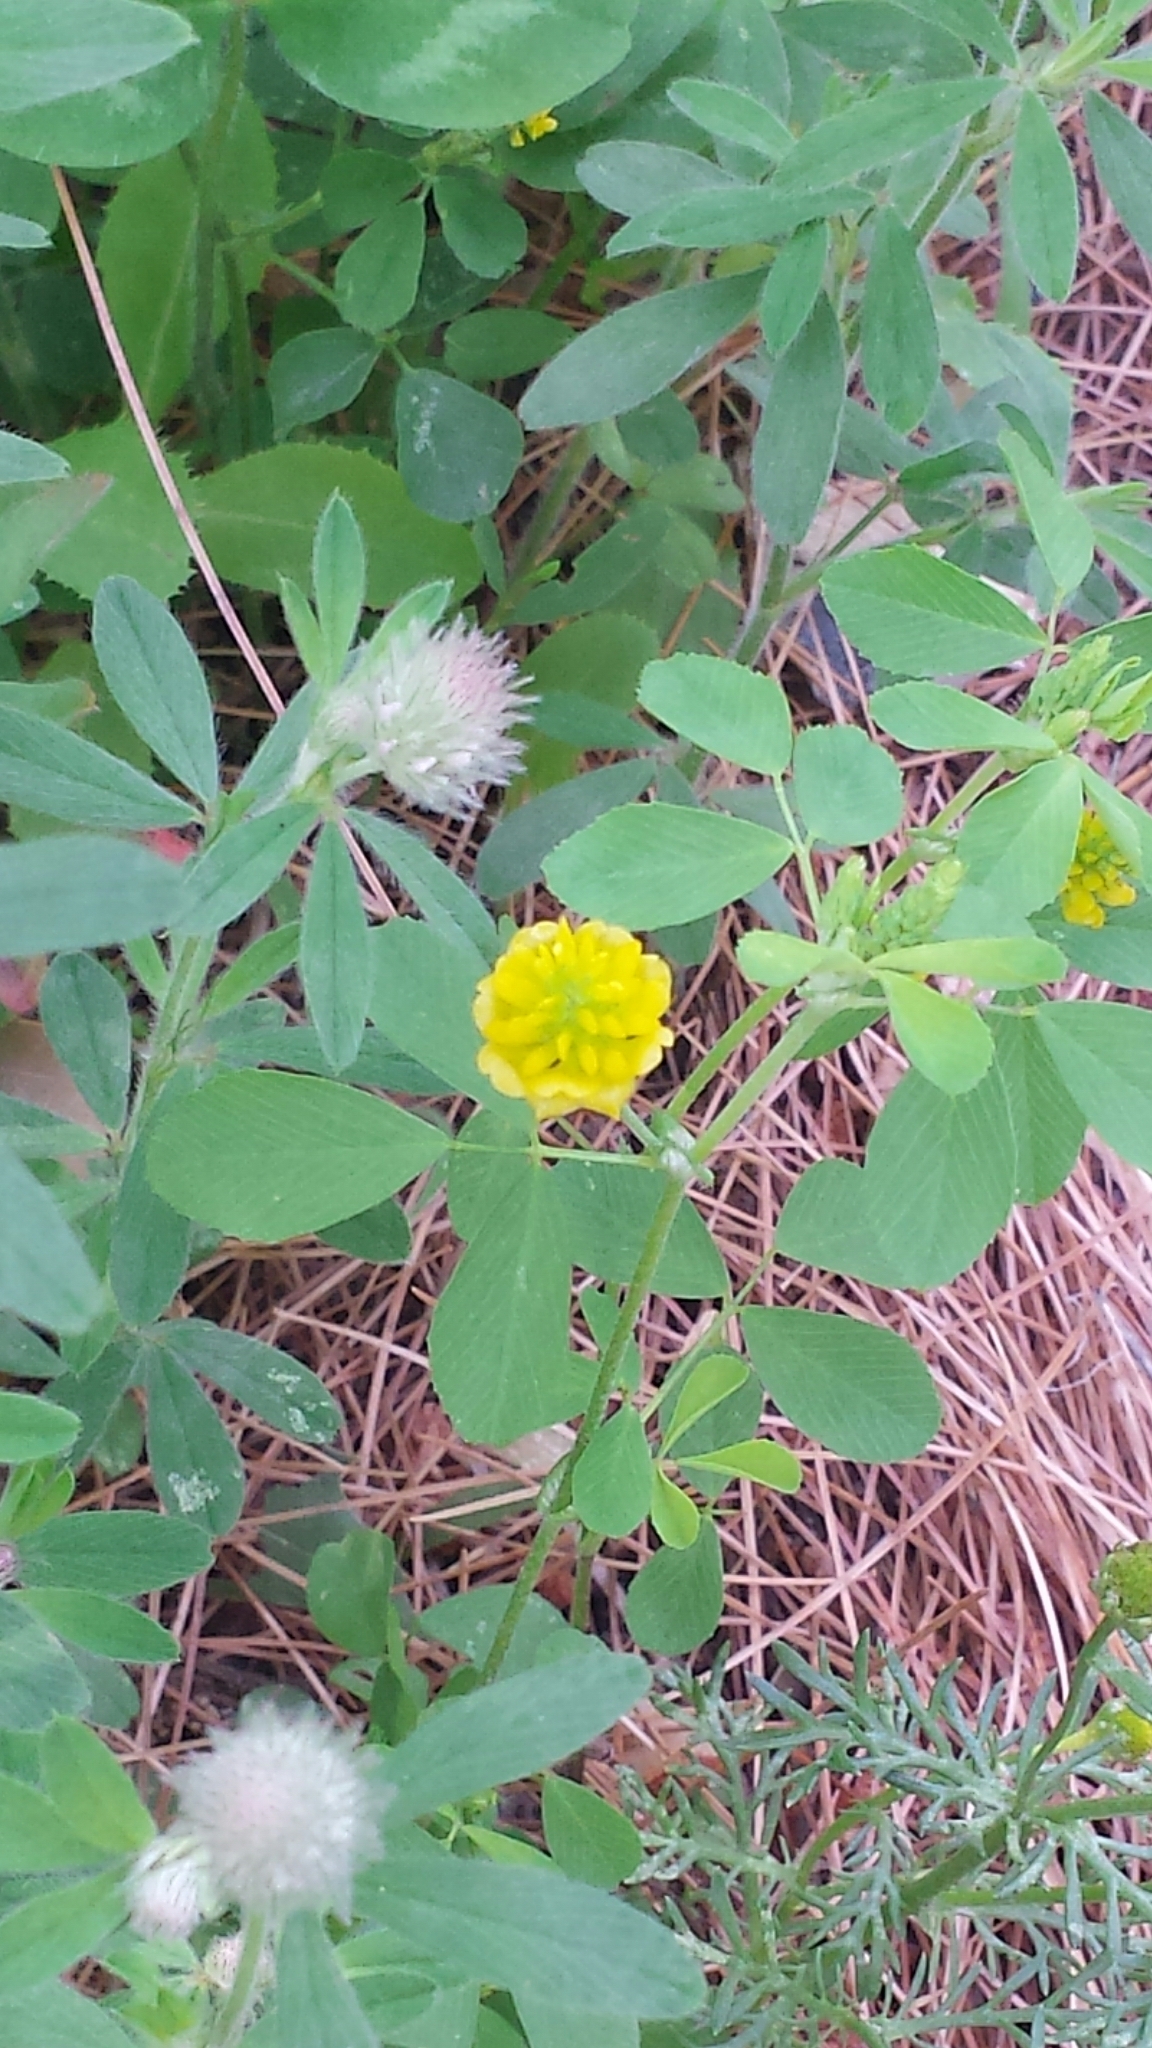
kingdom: Plantae
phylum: Tracheophyta
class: Magnoliopsida
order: Fabales
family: Fabaceae
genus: Trifolium
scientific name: Trifolium campestre
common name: Field clover
